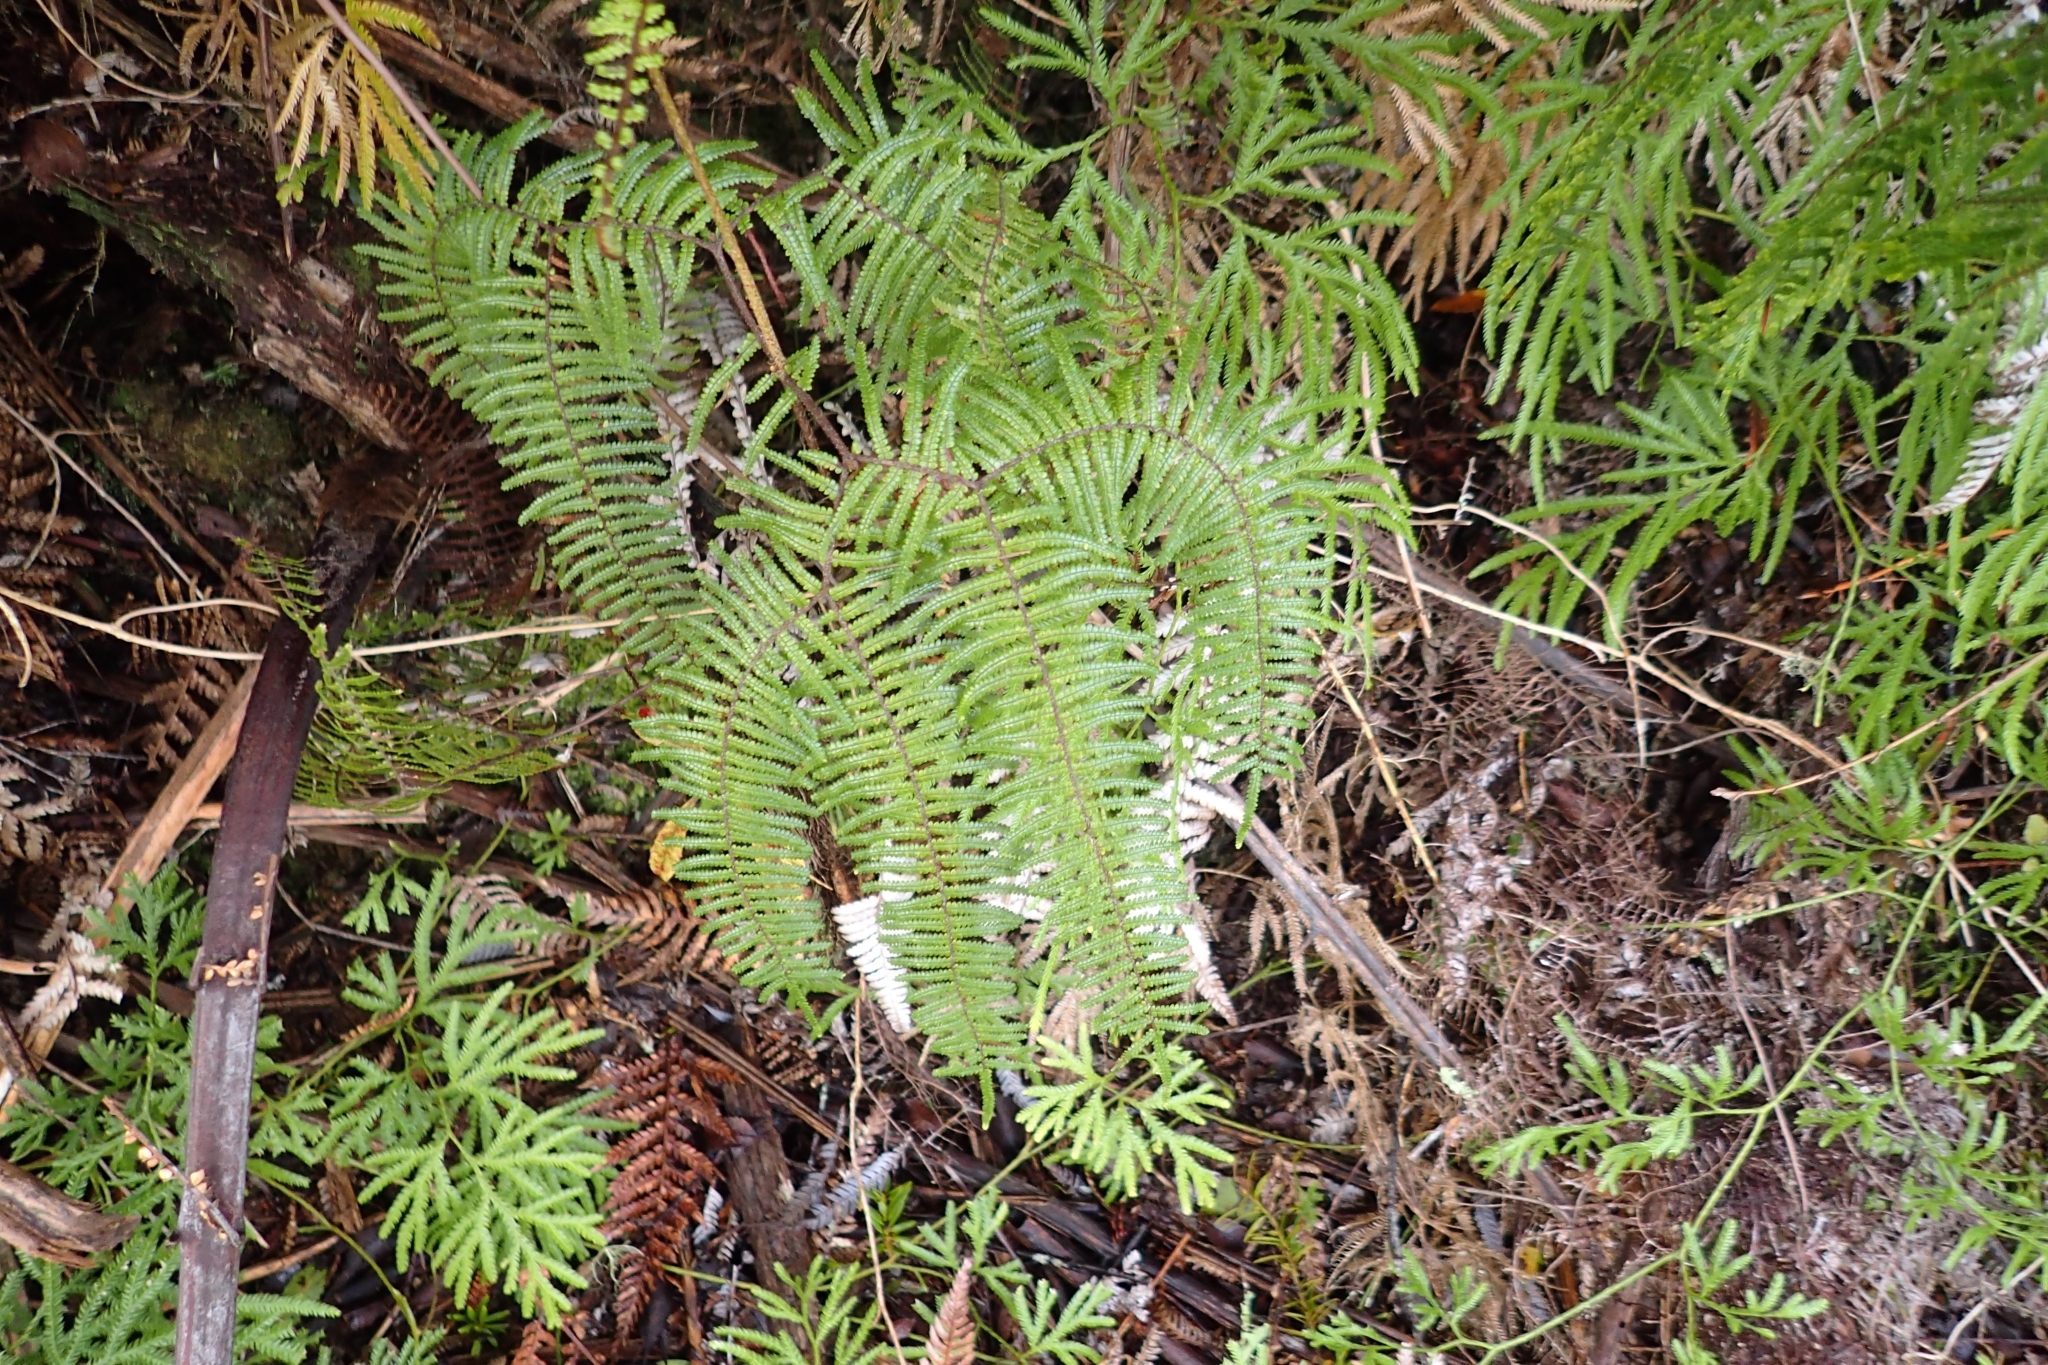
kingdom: Plantae
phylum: Tracheophyta
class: Polypodiopsida
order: Gleicheniales
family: Gleicheniaceae
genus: Gleichenia
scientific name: Gleichenia microphylla
